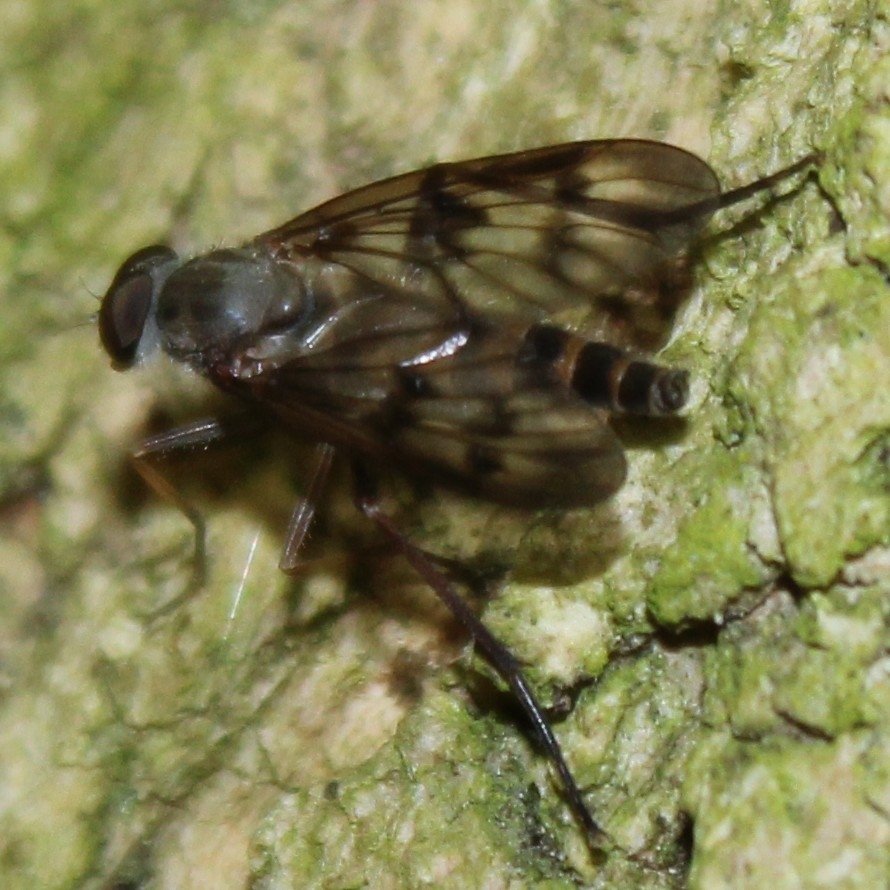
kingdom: Animalia
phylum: Arthropoda
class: Insecta
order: Diptera
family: Rhagionidae
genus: Rhagio
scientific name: Rhagio mystaceus
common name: Common snipe fly
